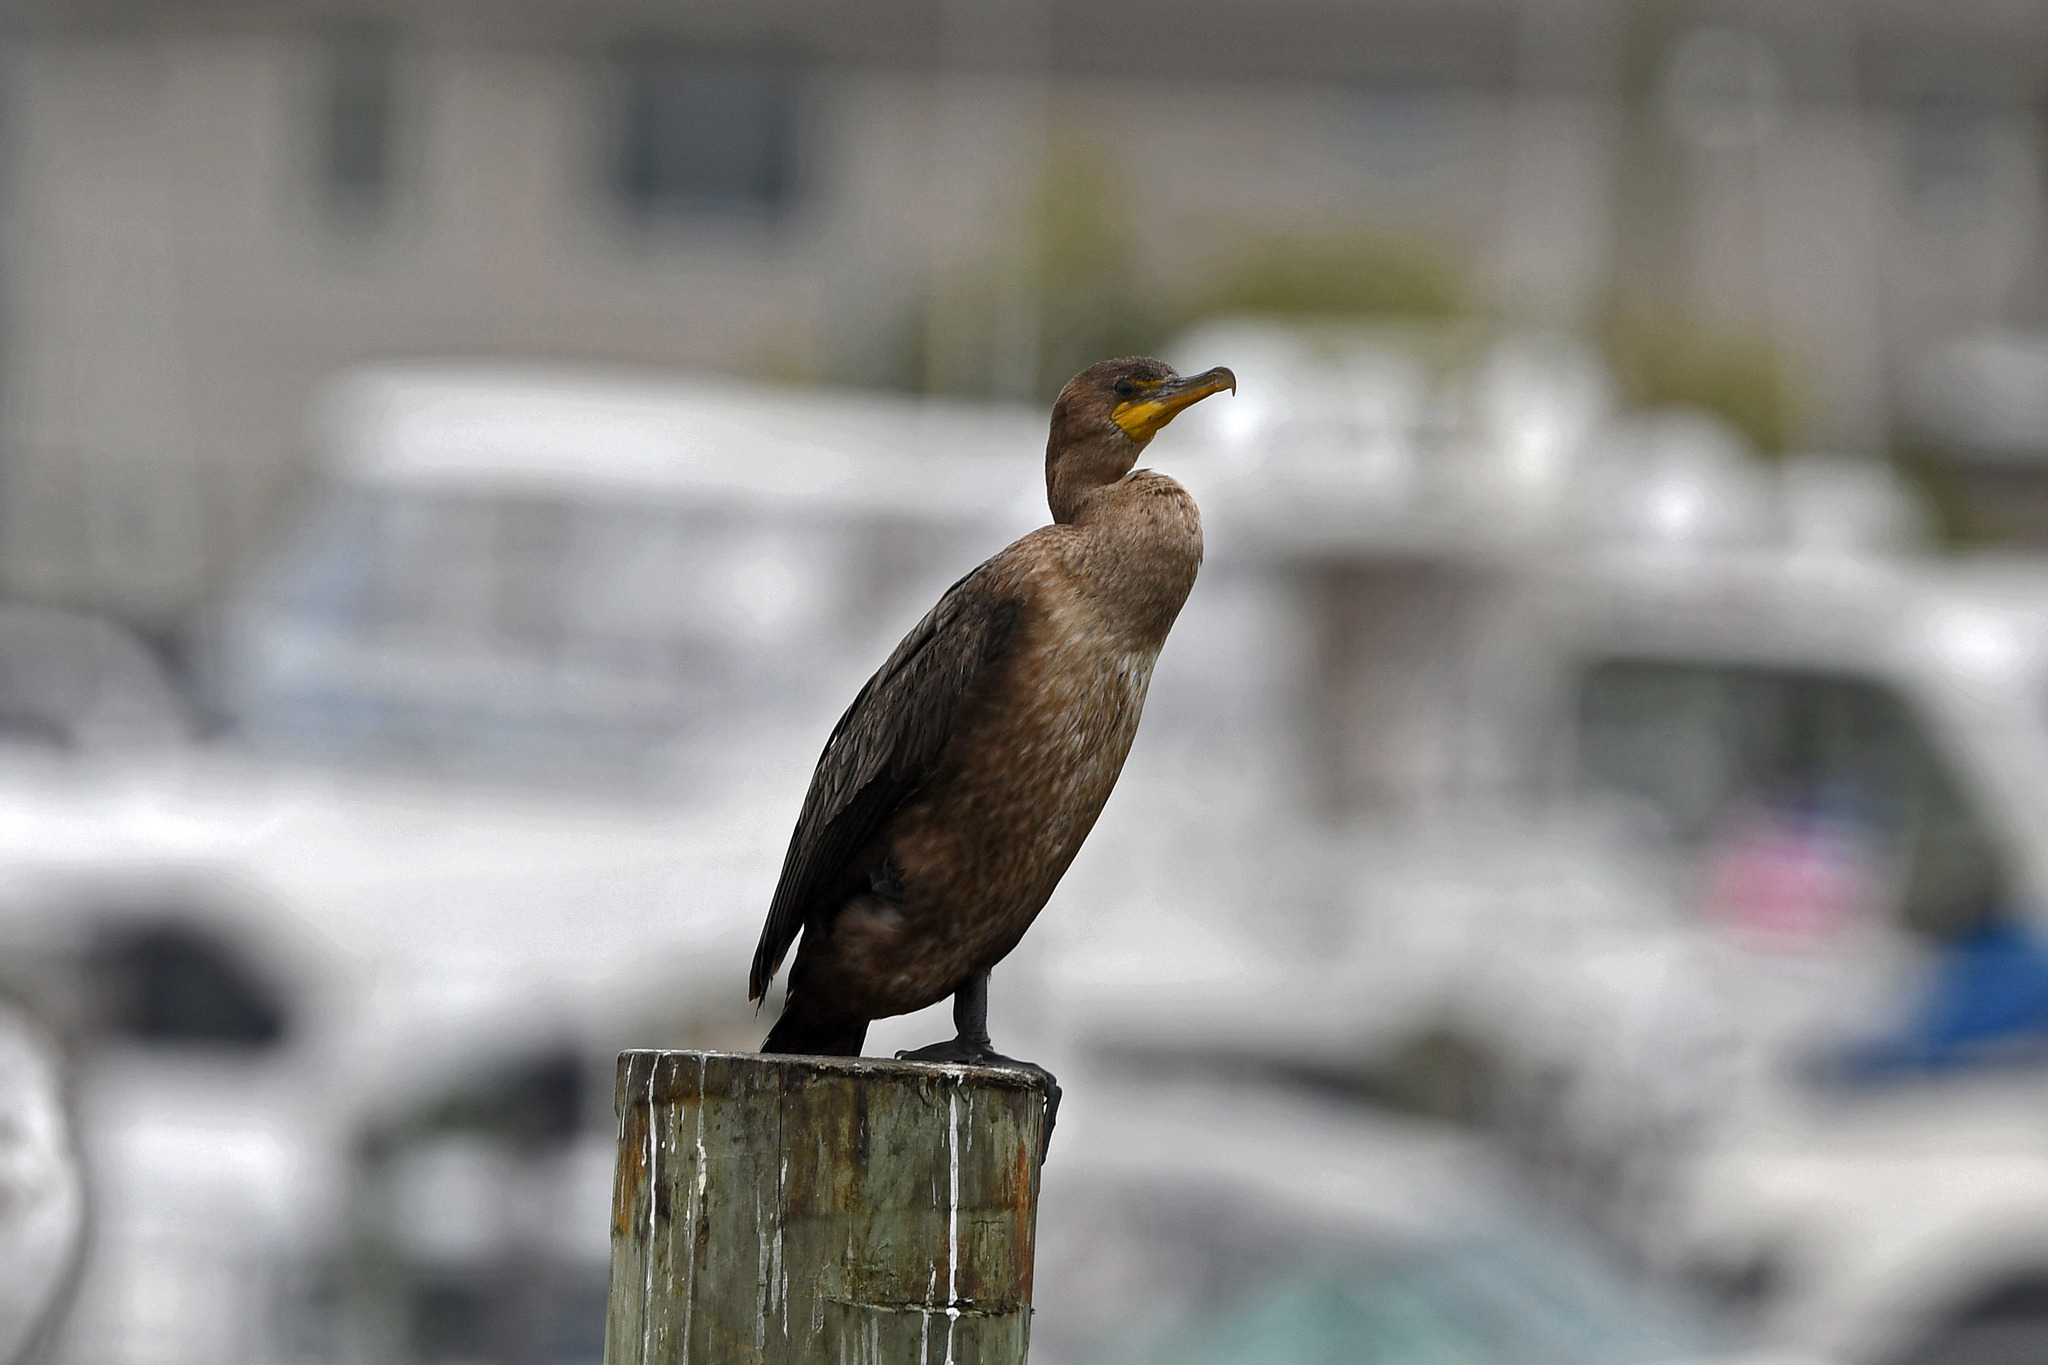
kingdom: Animalia
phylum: Chordata
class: Aves
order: Suliformes
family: Phalacrocoracidae
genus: Phalacrocorax
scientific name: Phalacrocorax auritus
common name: Double-crested cormorant
